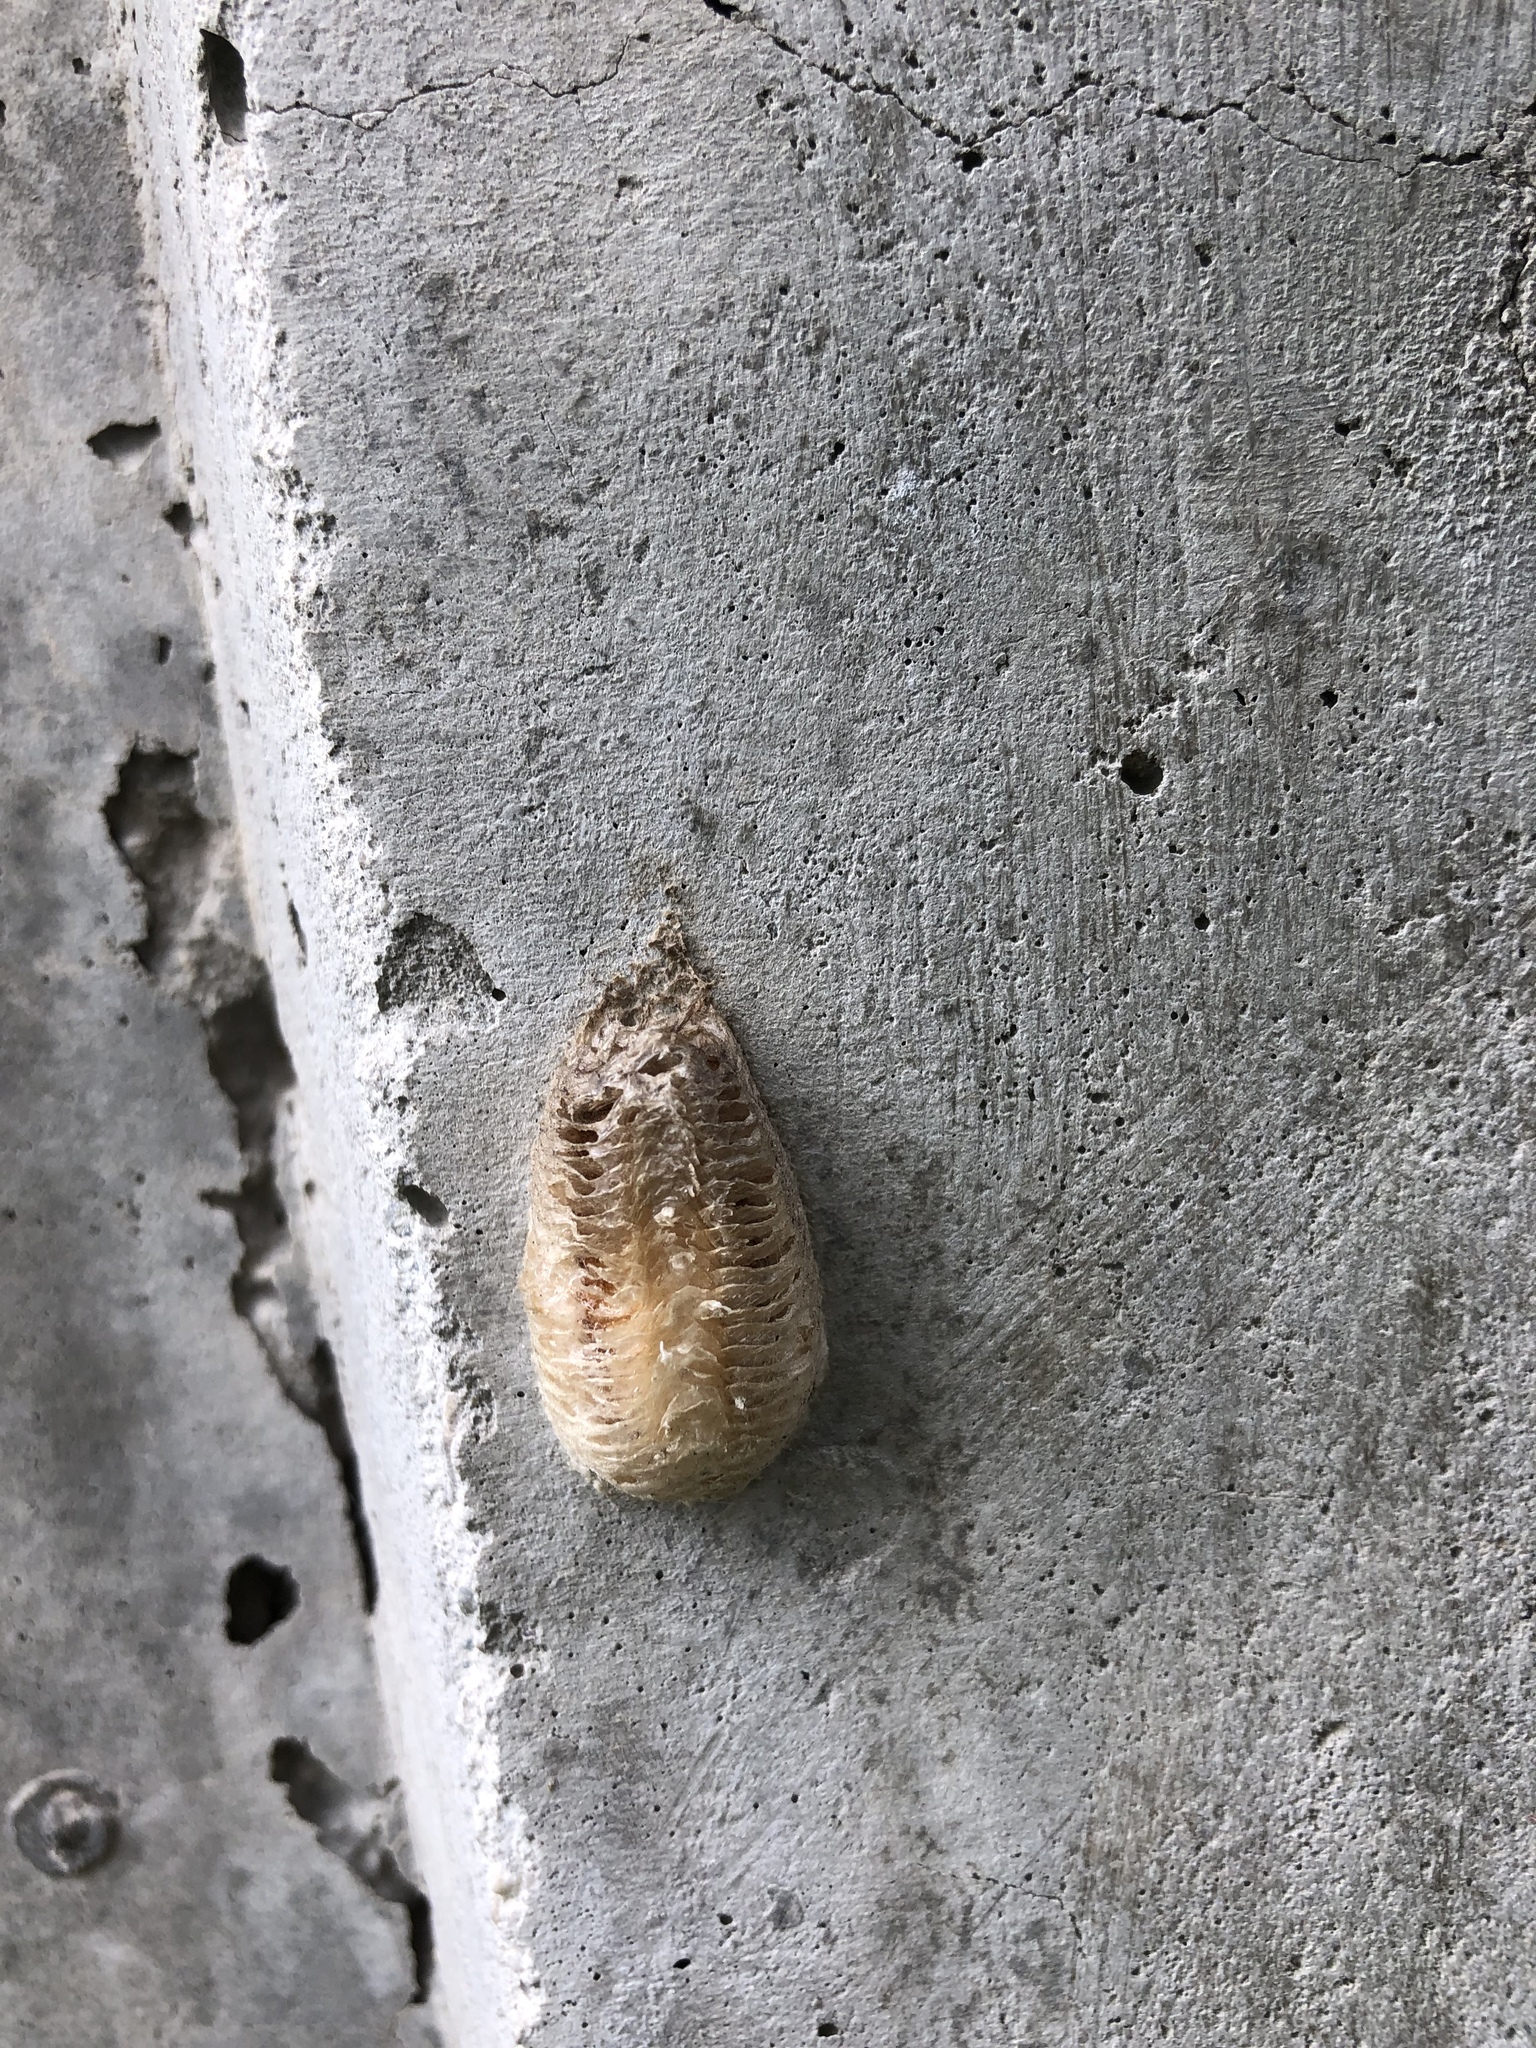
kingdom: Animalia
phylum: Arthropoda
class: Insecta
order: Mantodea
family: Mantidae
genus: Mantis
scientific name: Mantis religiosa
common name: Praying mantis
